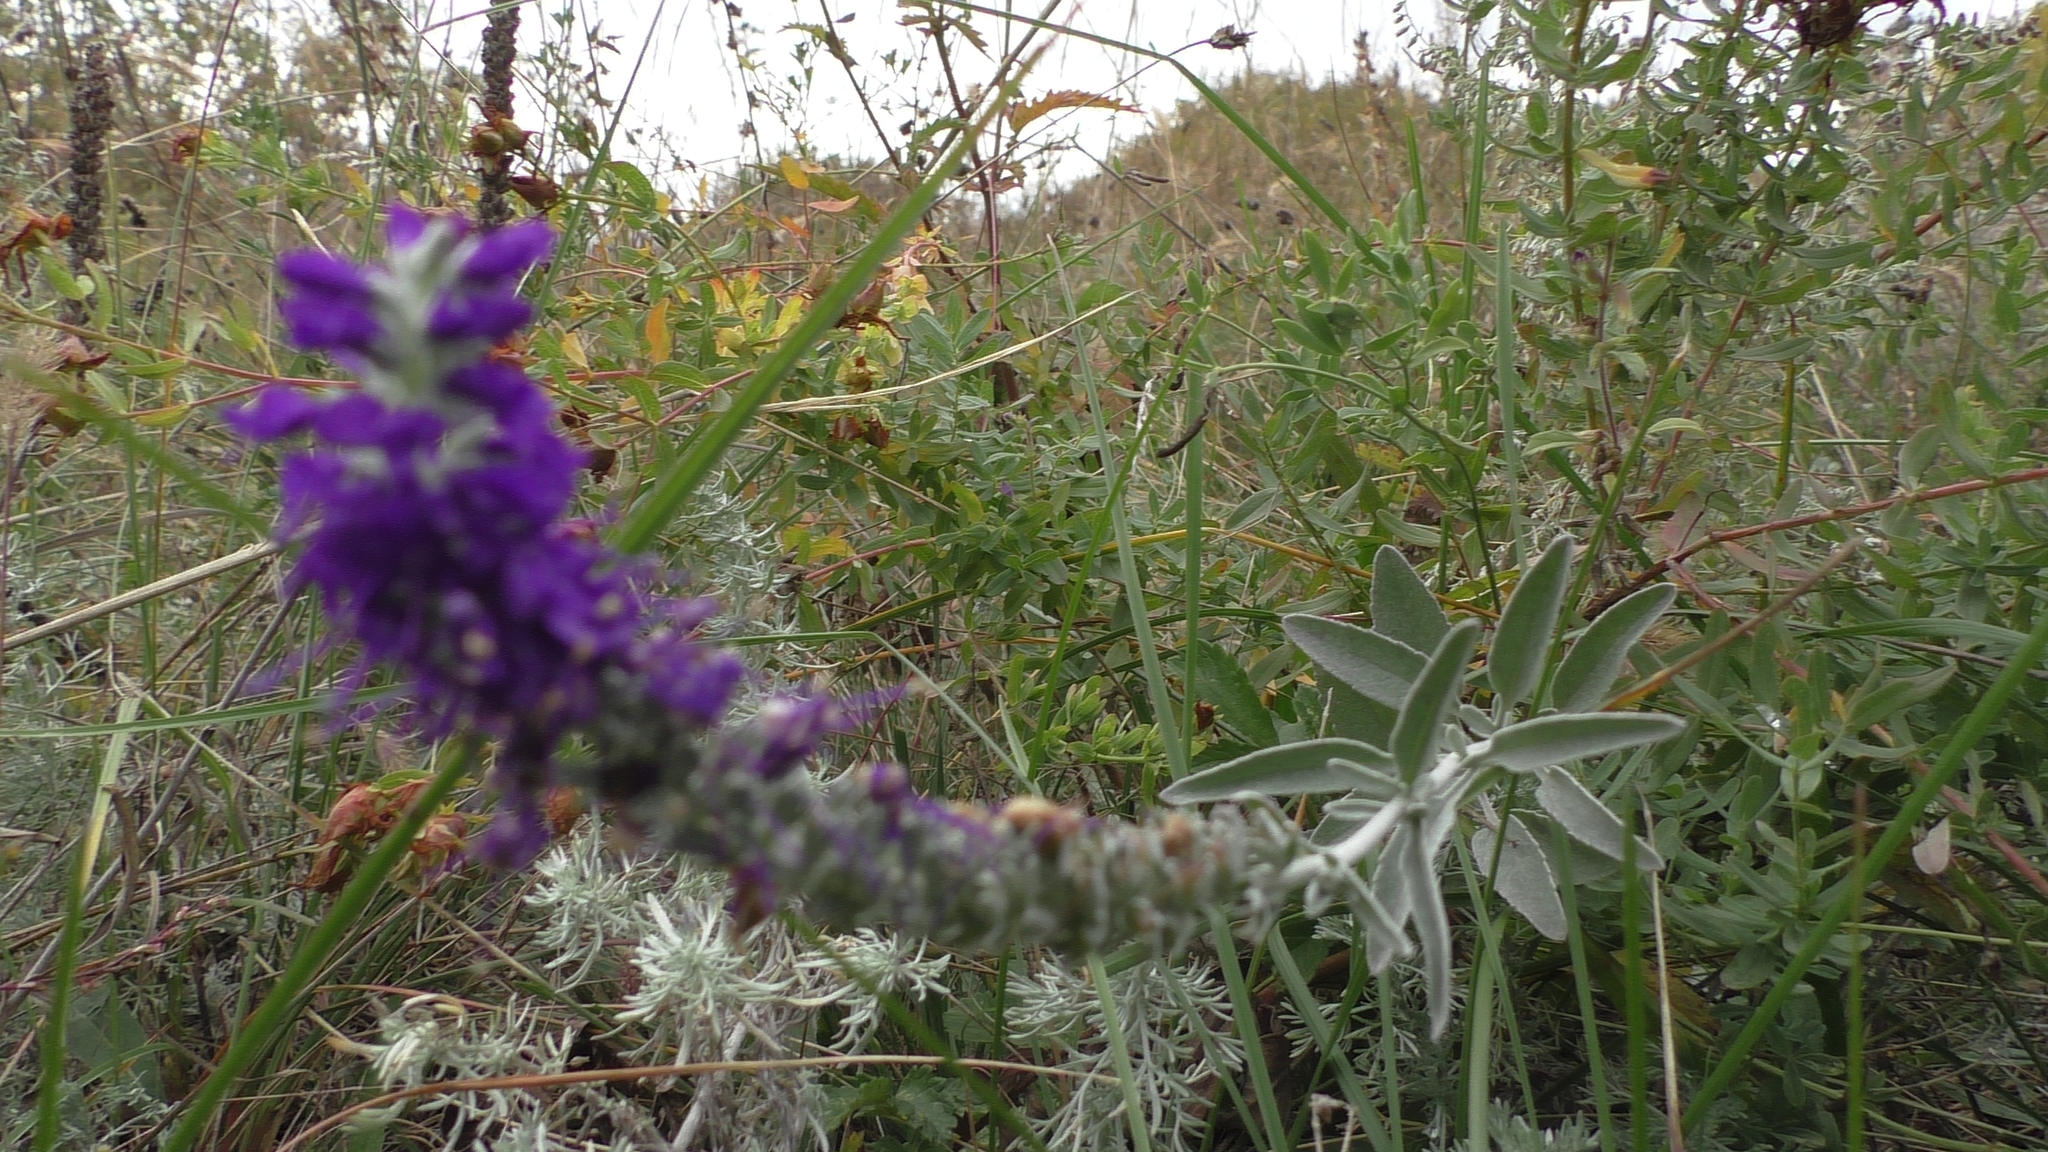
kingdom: Plantae
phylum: Tracheophyta
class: Magnoliopsida
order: Lamiales
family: Plantaginaceae
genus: Veronica
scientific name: Veronica incana
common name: Silver speedwell
